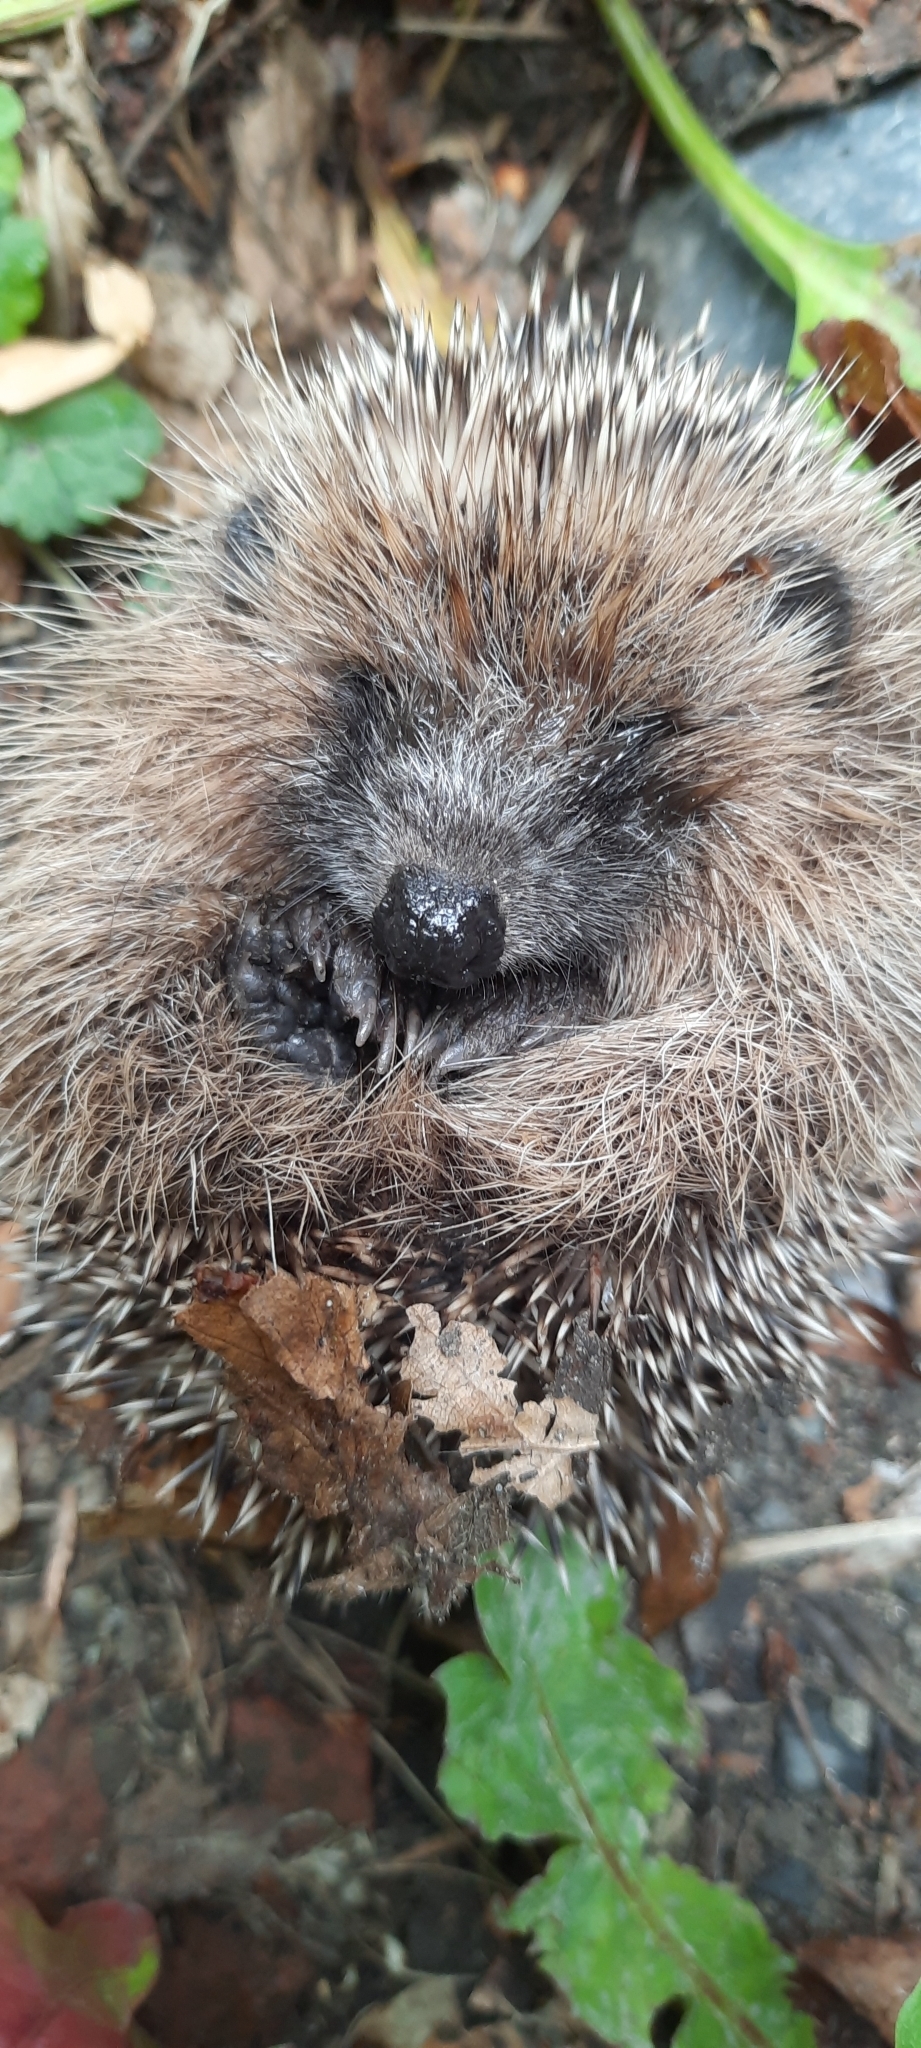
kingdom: Animalia
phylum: Chordata
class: Mammalia
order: Erinaceomorpha
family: Erinaceidae
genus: Erinaceus
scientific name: Erinaceus europaeus
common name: West european hedgehog
